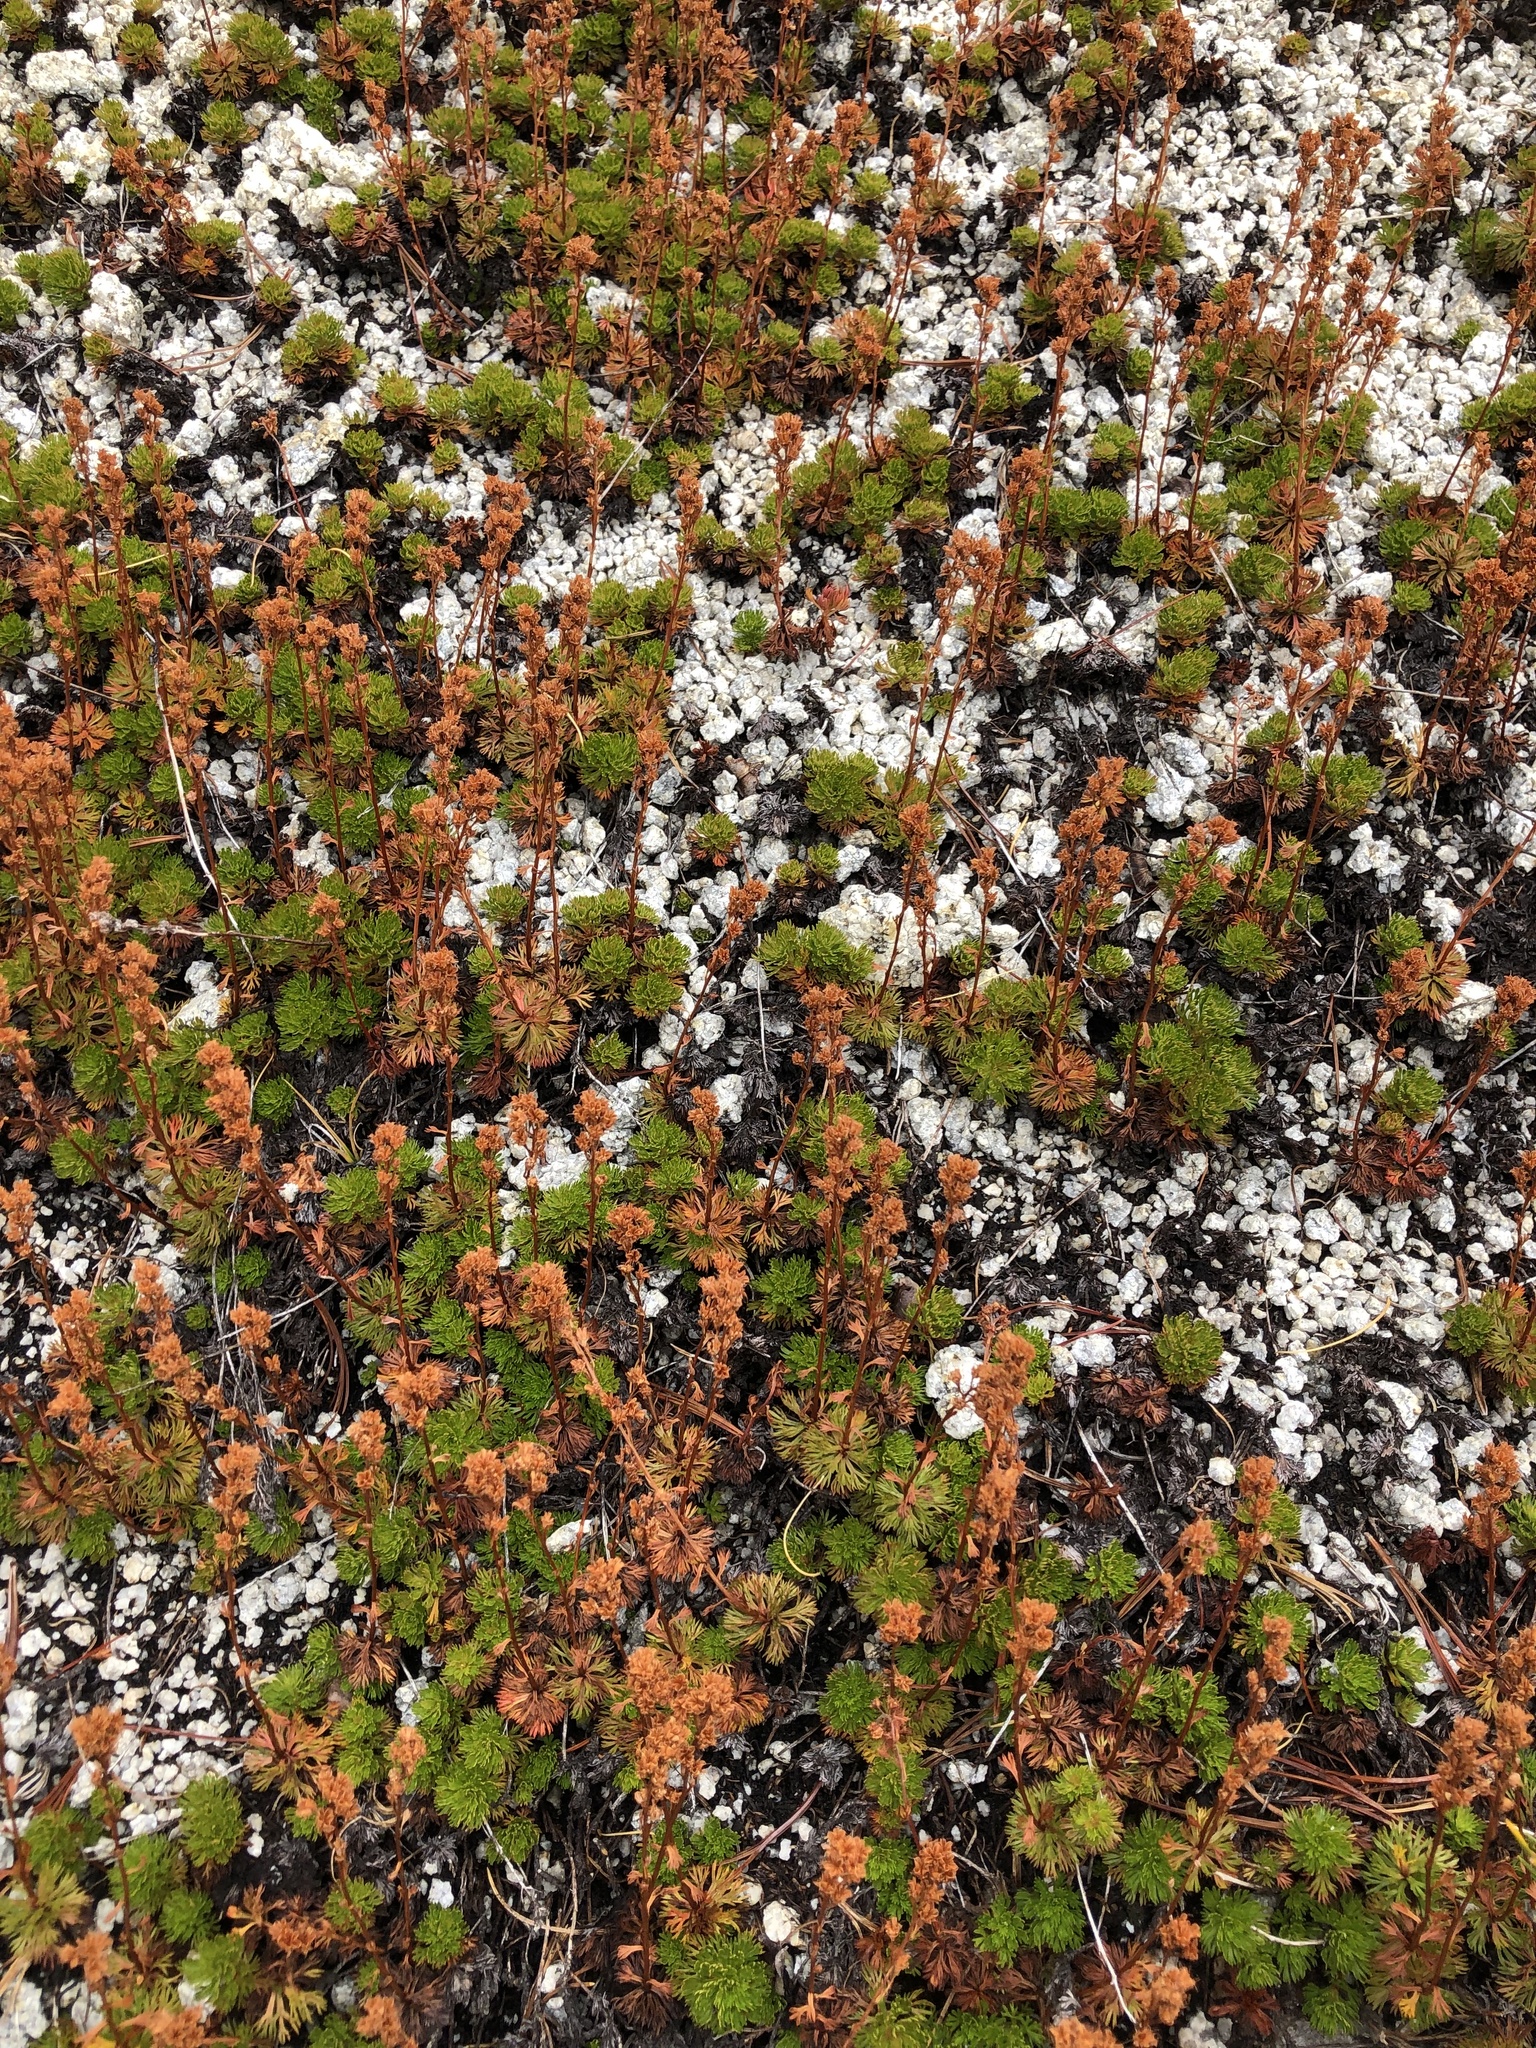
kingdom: Plantae
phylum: Tracheophyta
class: Magnoliopsida
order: Rosales
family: Rosaceae
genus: Luetkea
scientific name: Luetkea pectinata
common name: Partridgefoot
